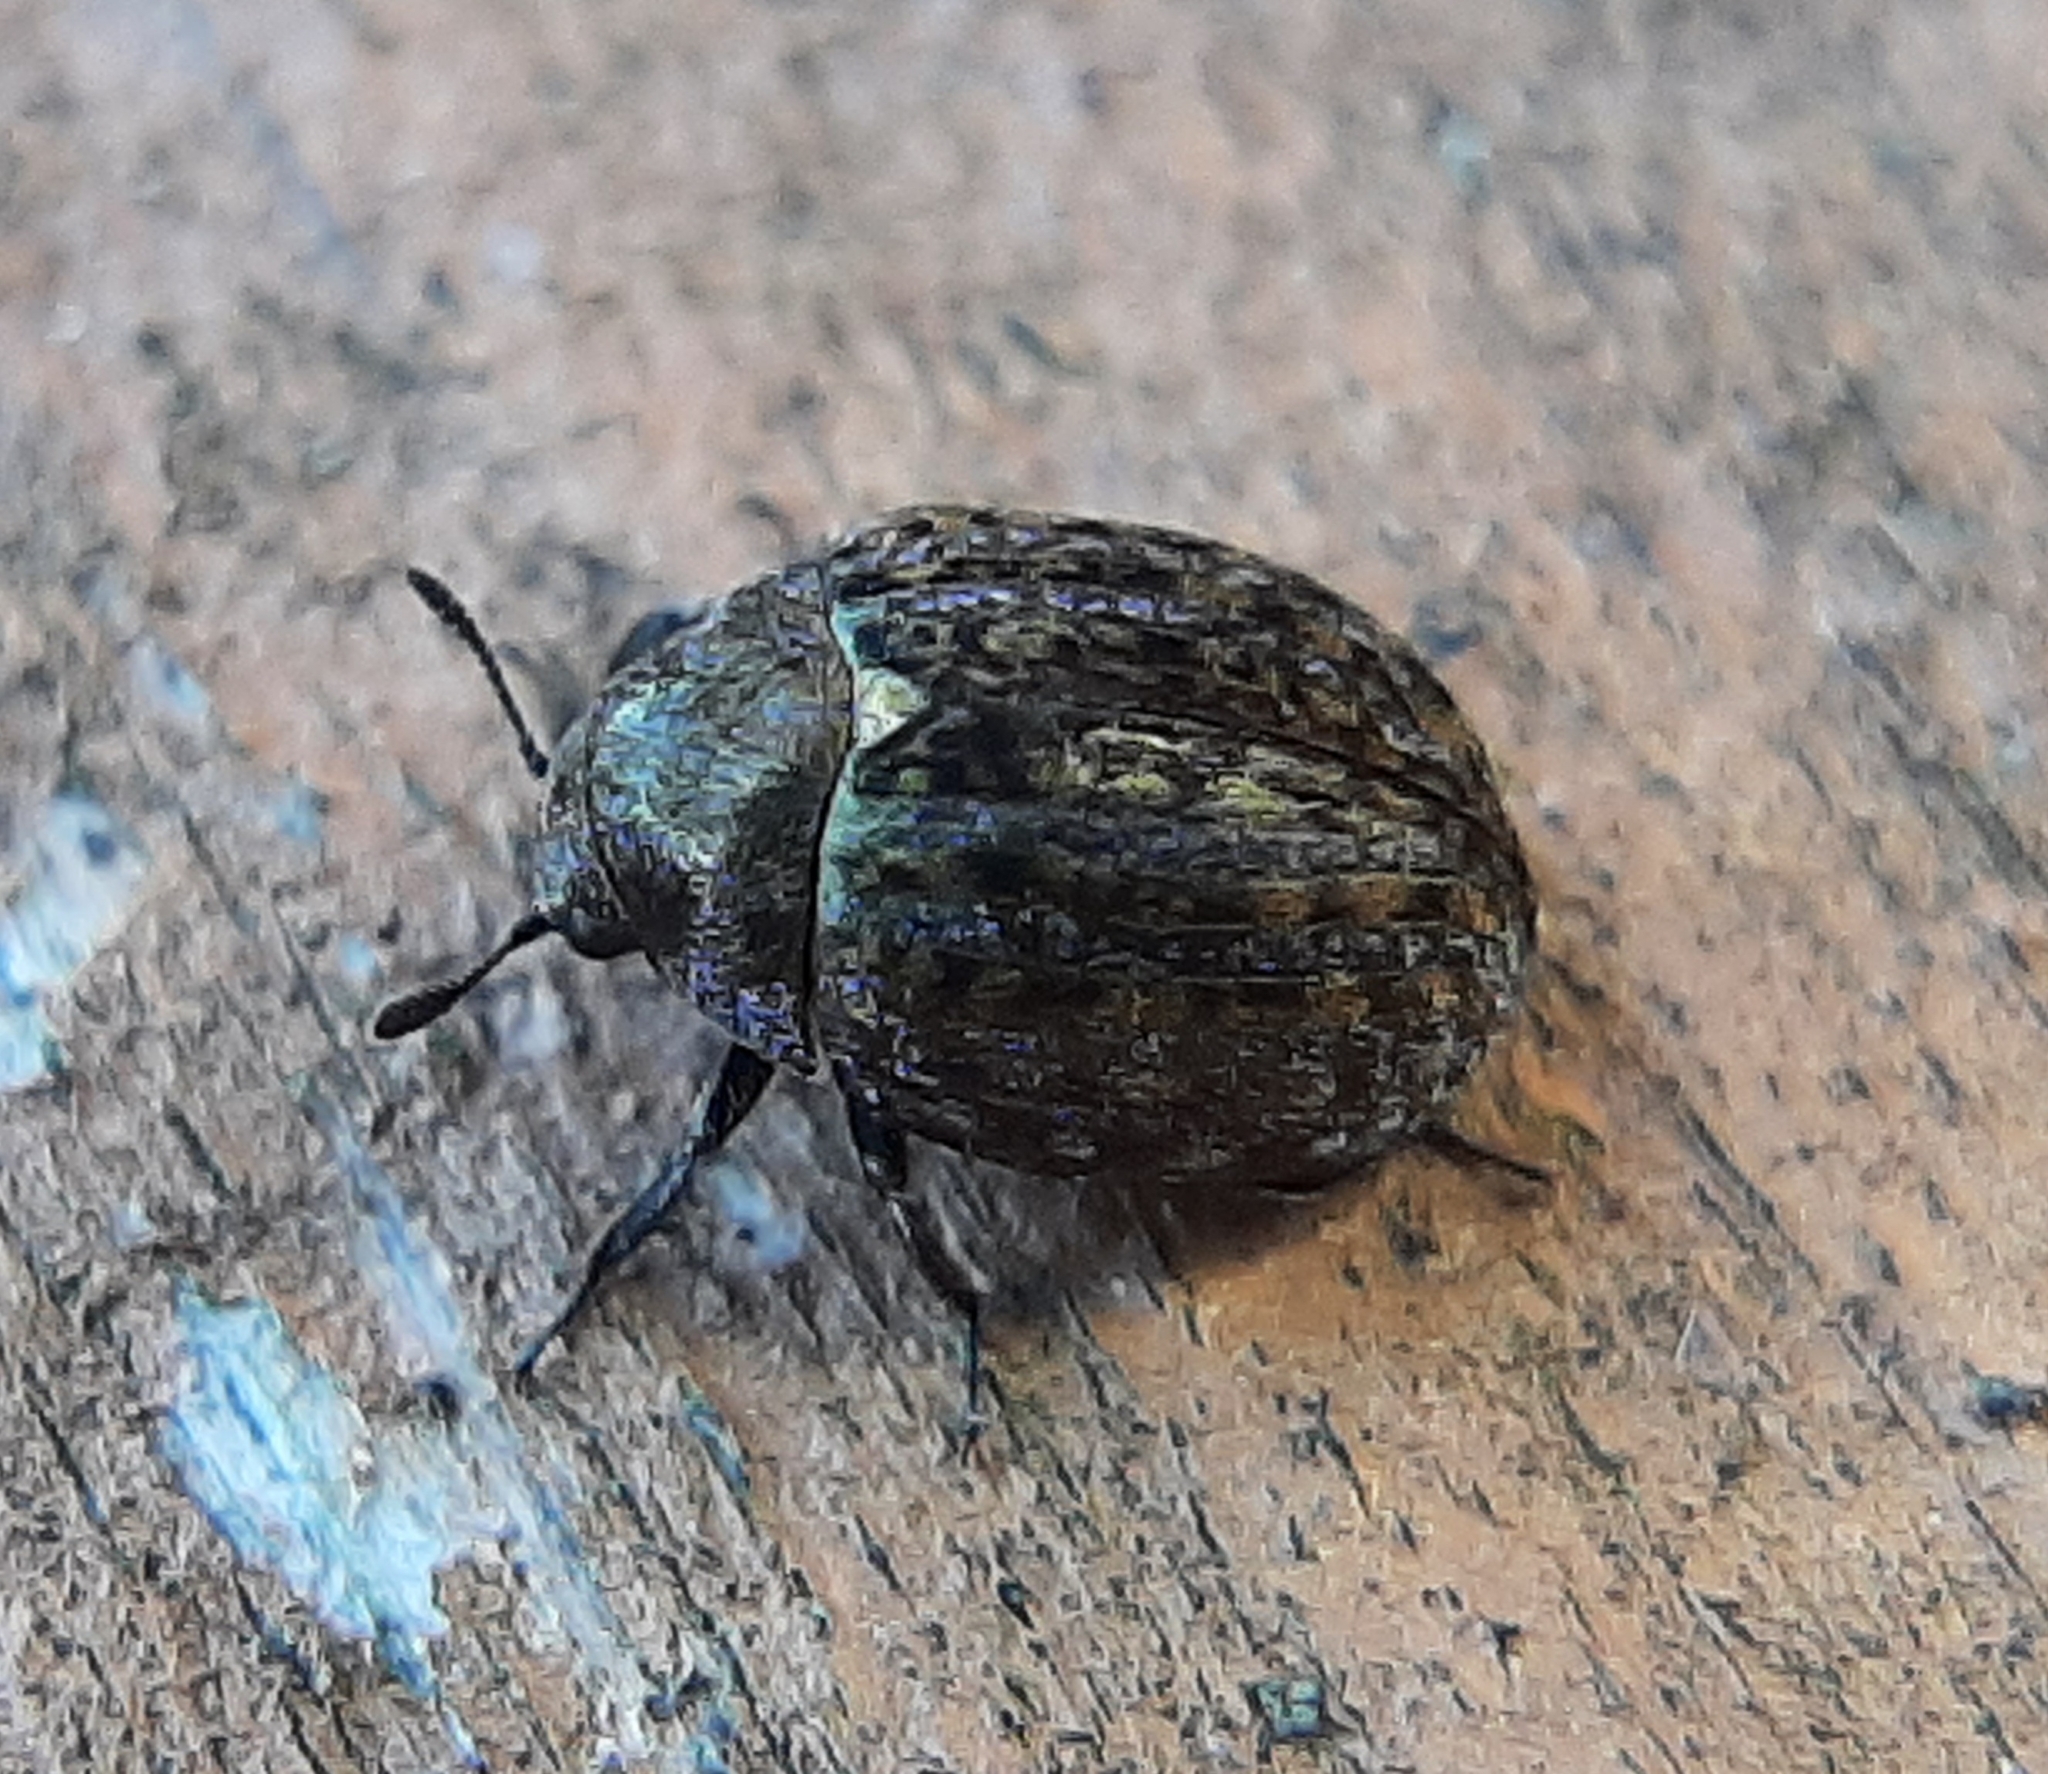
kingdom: Animalia
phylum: Arthropoda
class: Insecta
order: Coleoptera
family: Byrrhidae
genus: Cytilus
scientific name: Cytilus alternatus
